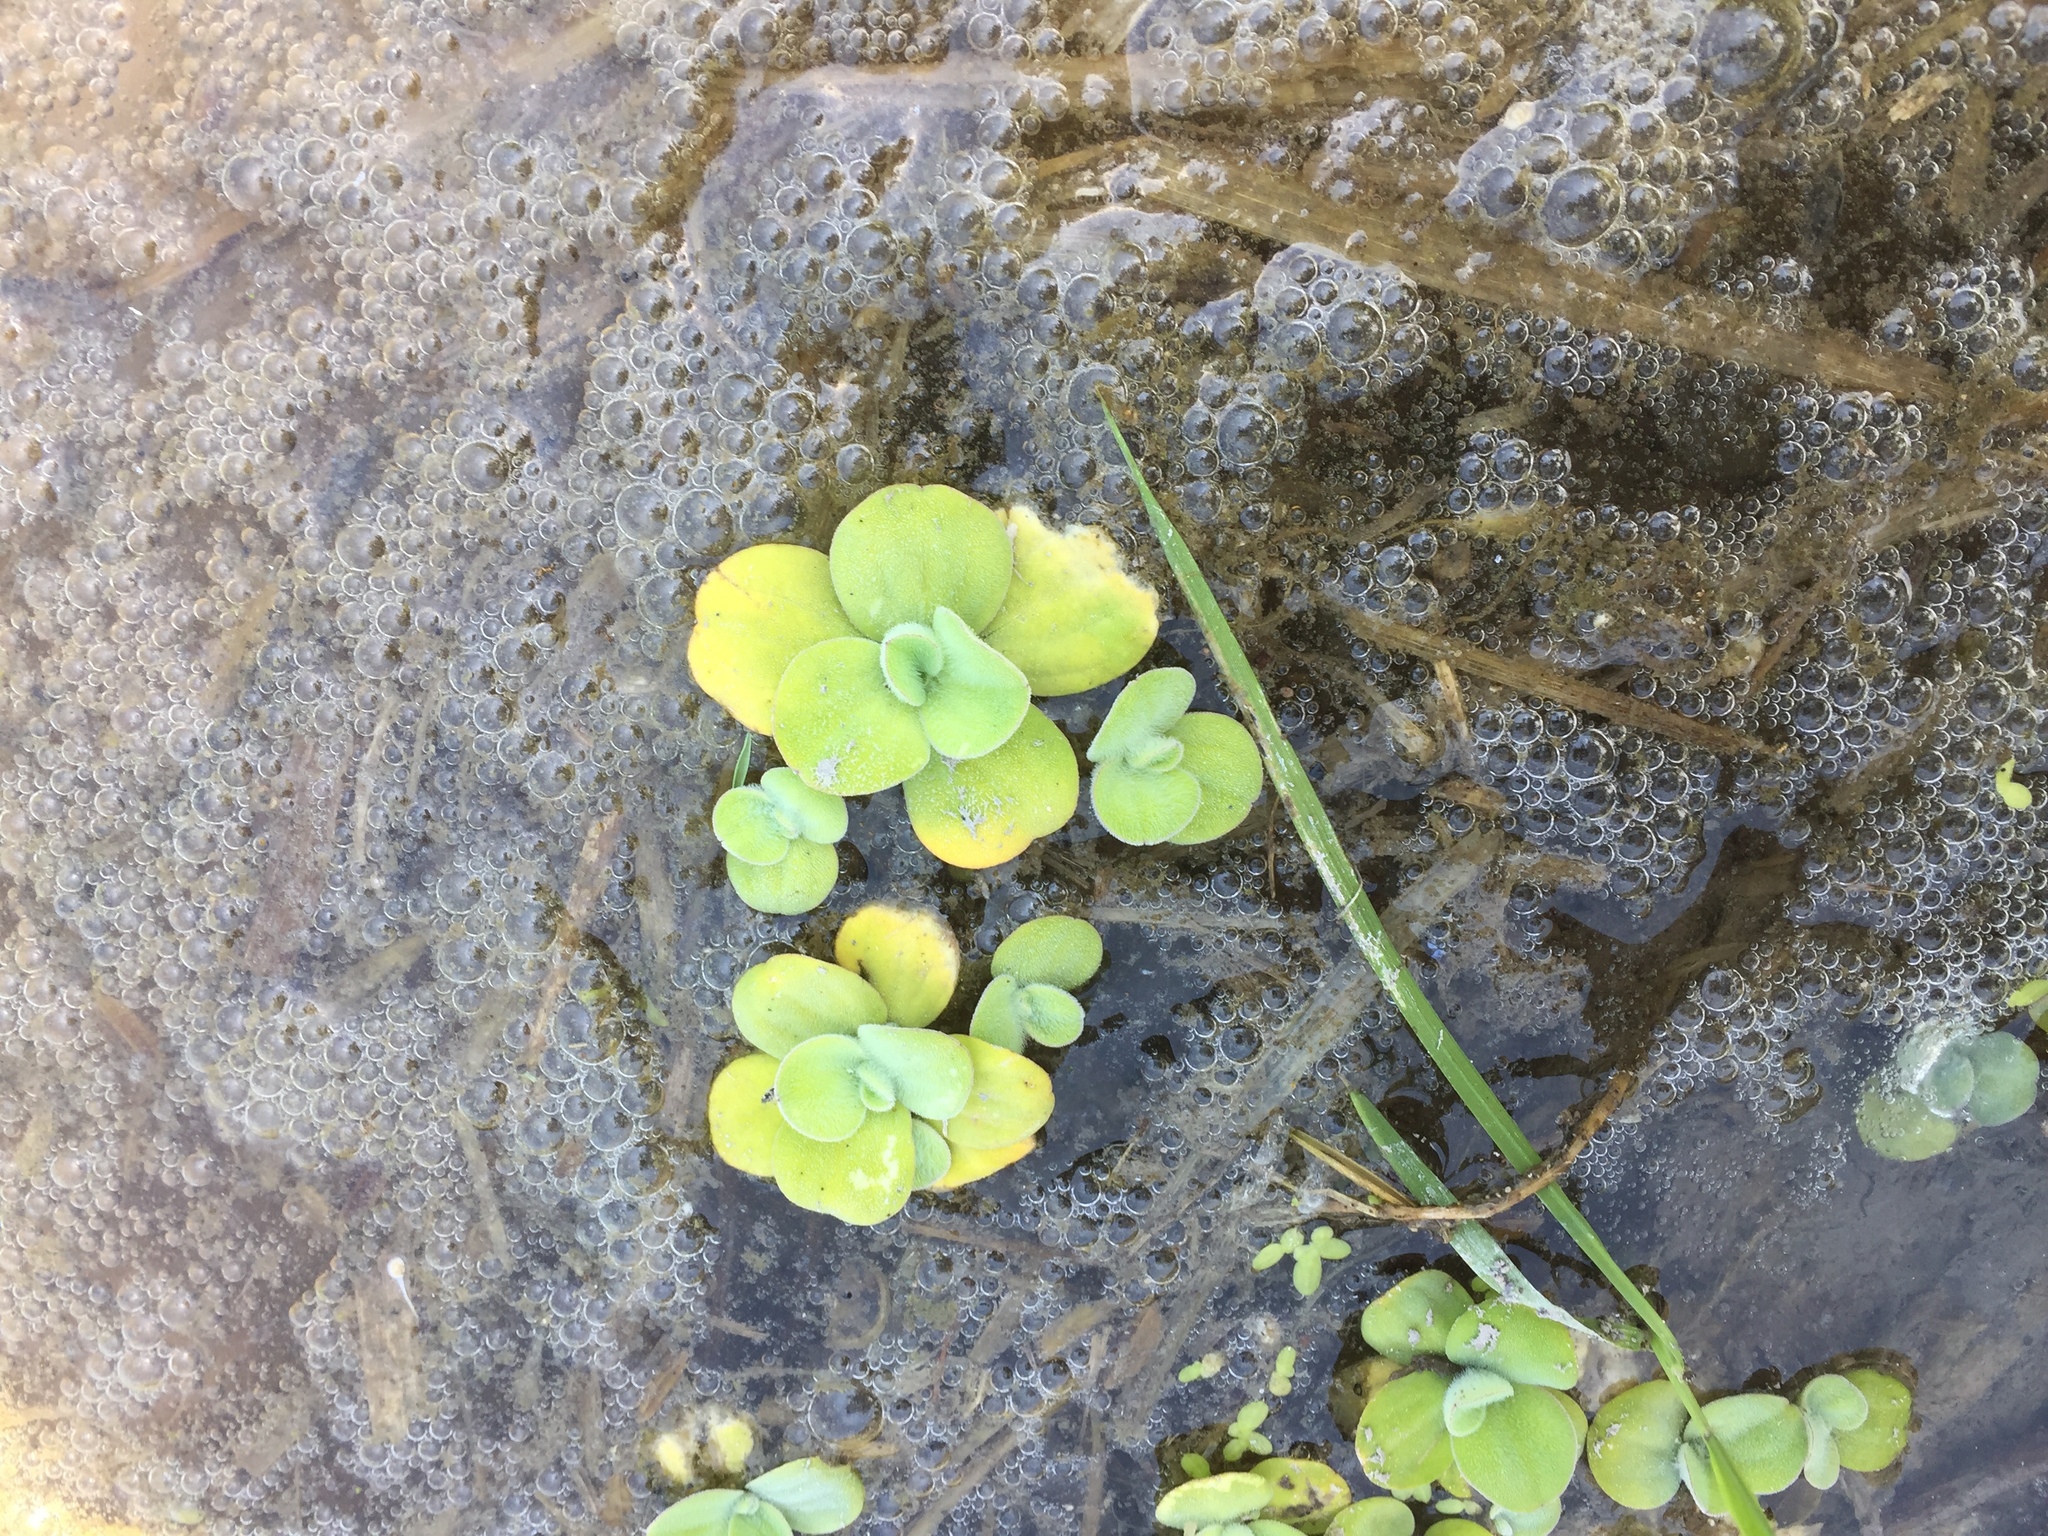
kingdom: Plantae
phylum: Tracheophyta
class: Liliopsida
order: Alismatales
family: Araceae
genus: Pistia
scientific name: Pistia stratiotes
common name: Water lettuce
